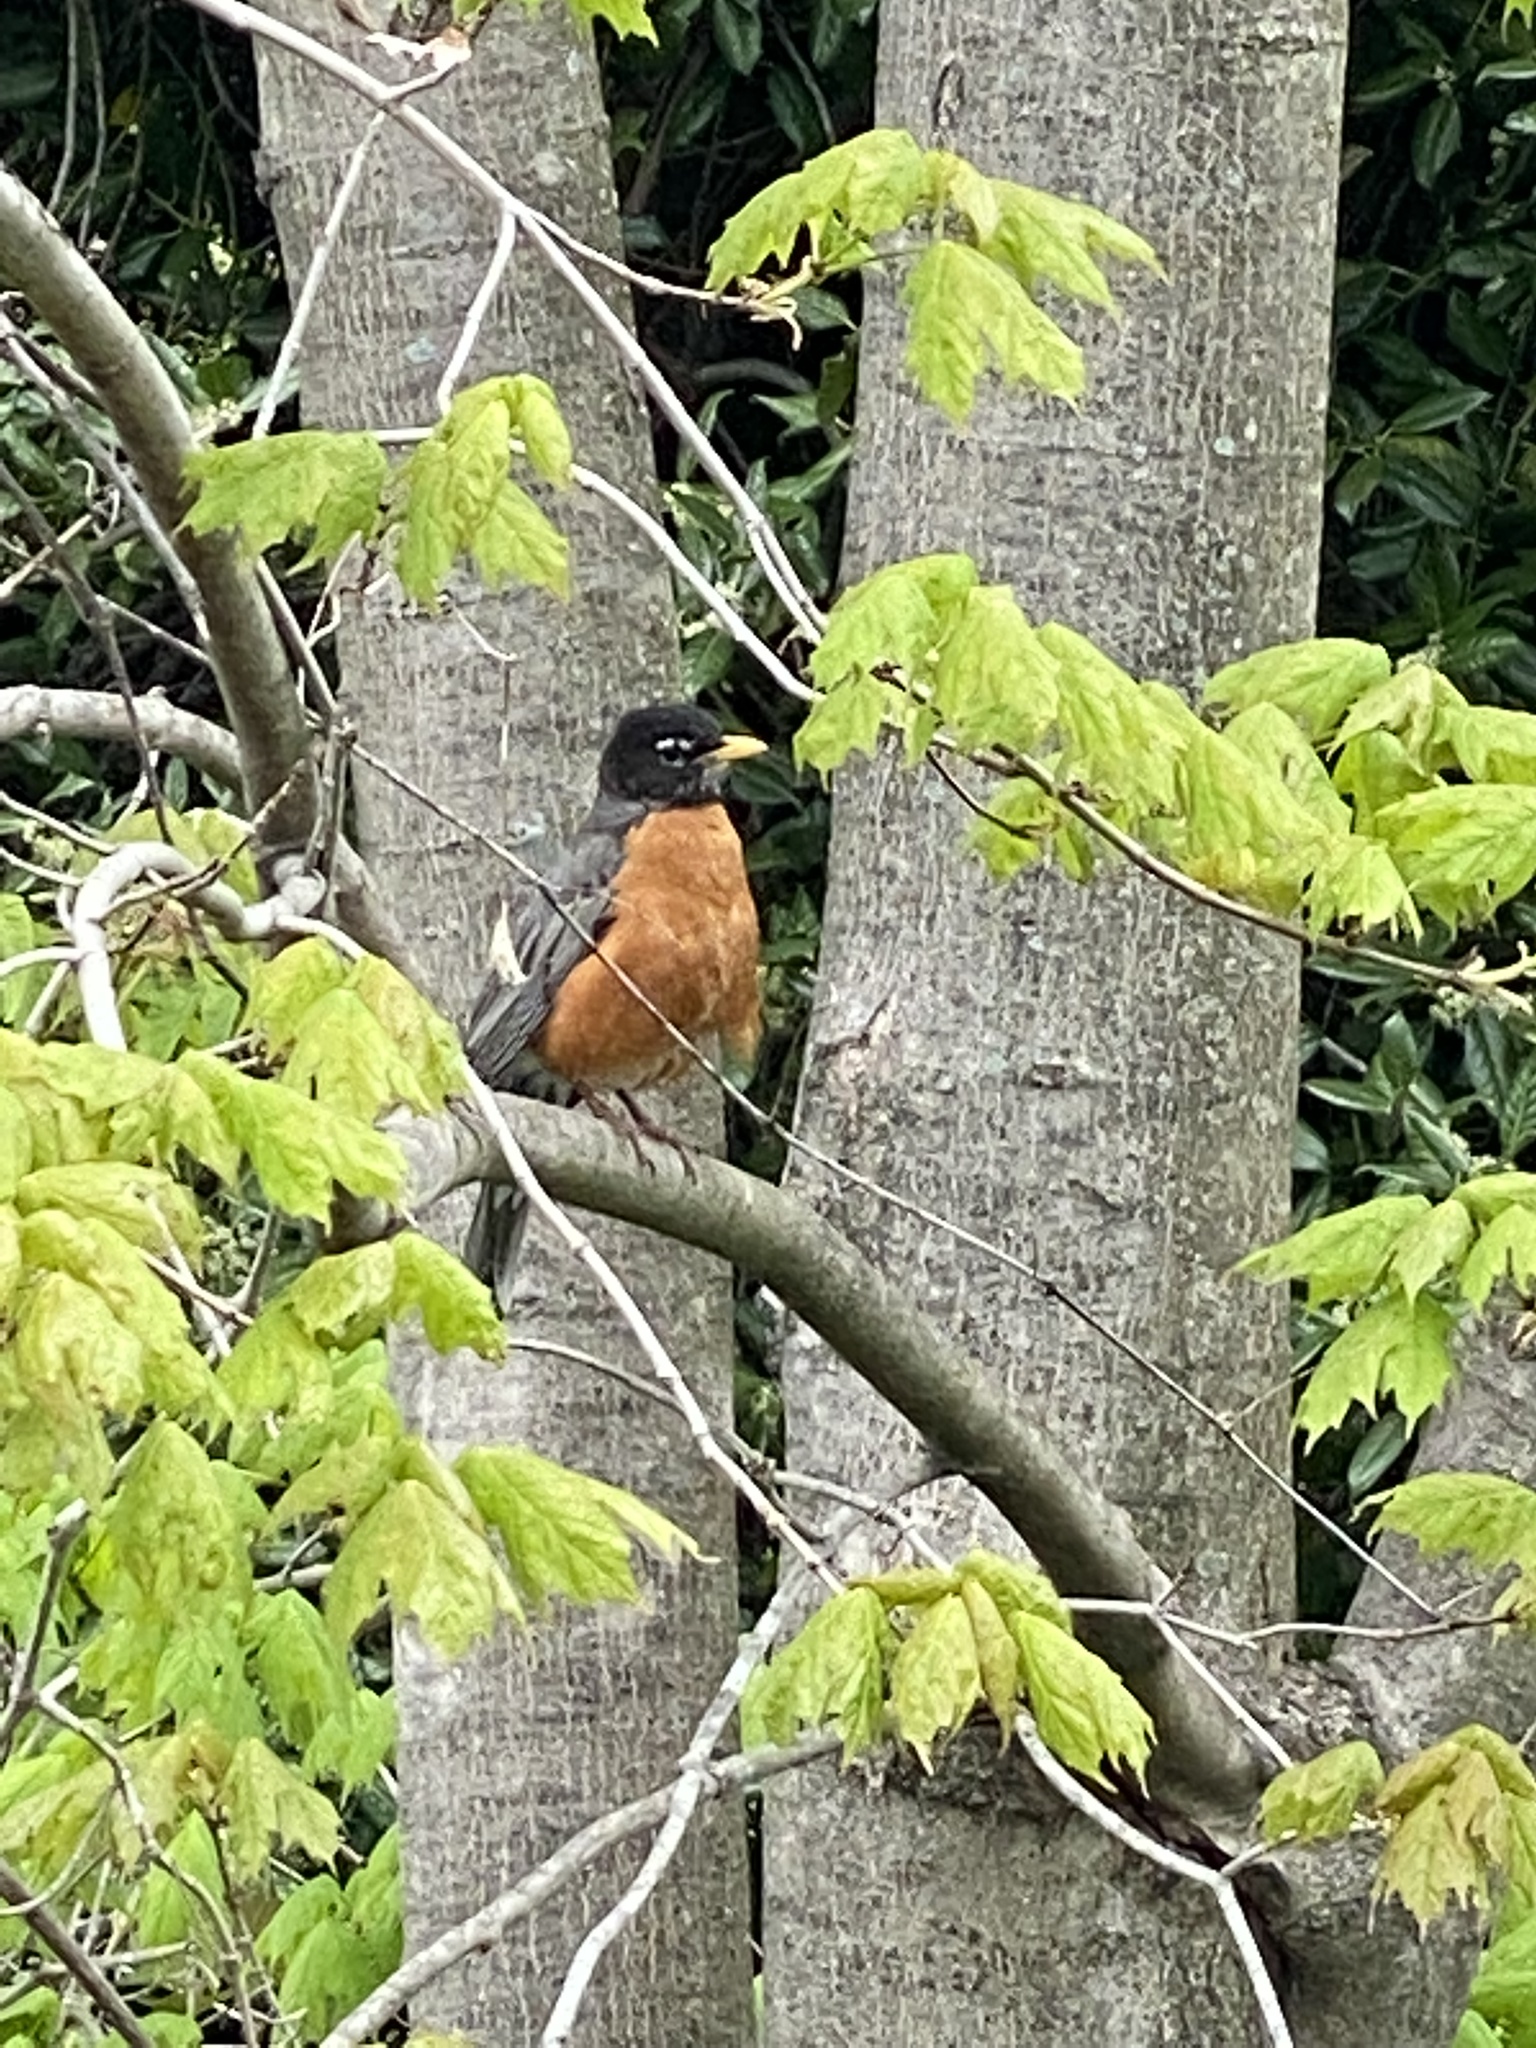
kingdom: Animalia
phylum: Chordata
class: Aves
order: Passeriformes
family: Turdidae
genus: Turdus
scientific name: Turdus migratorius
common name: American robin
